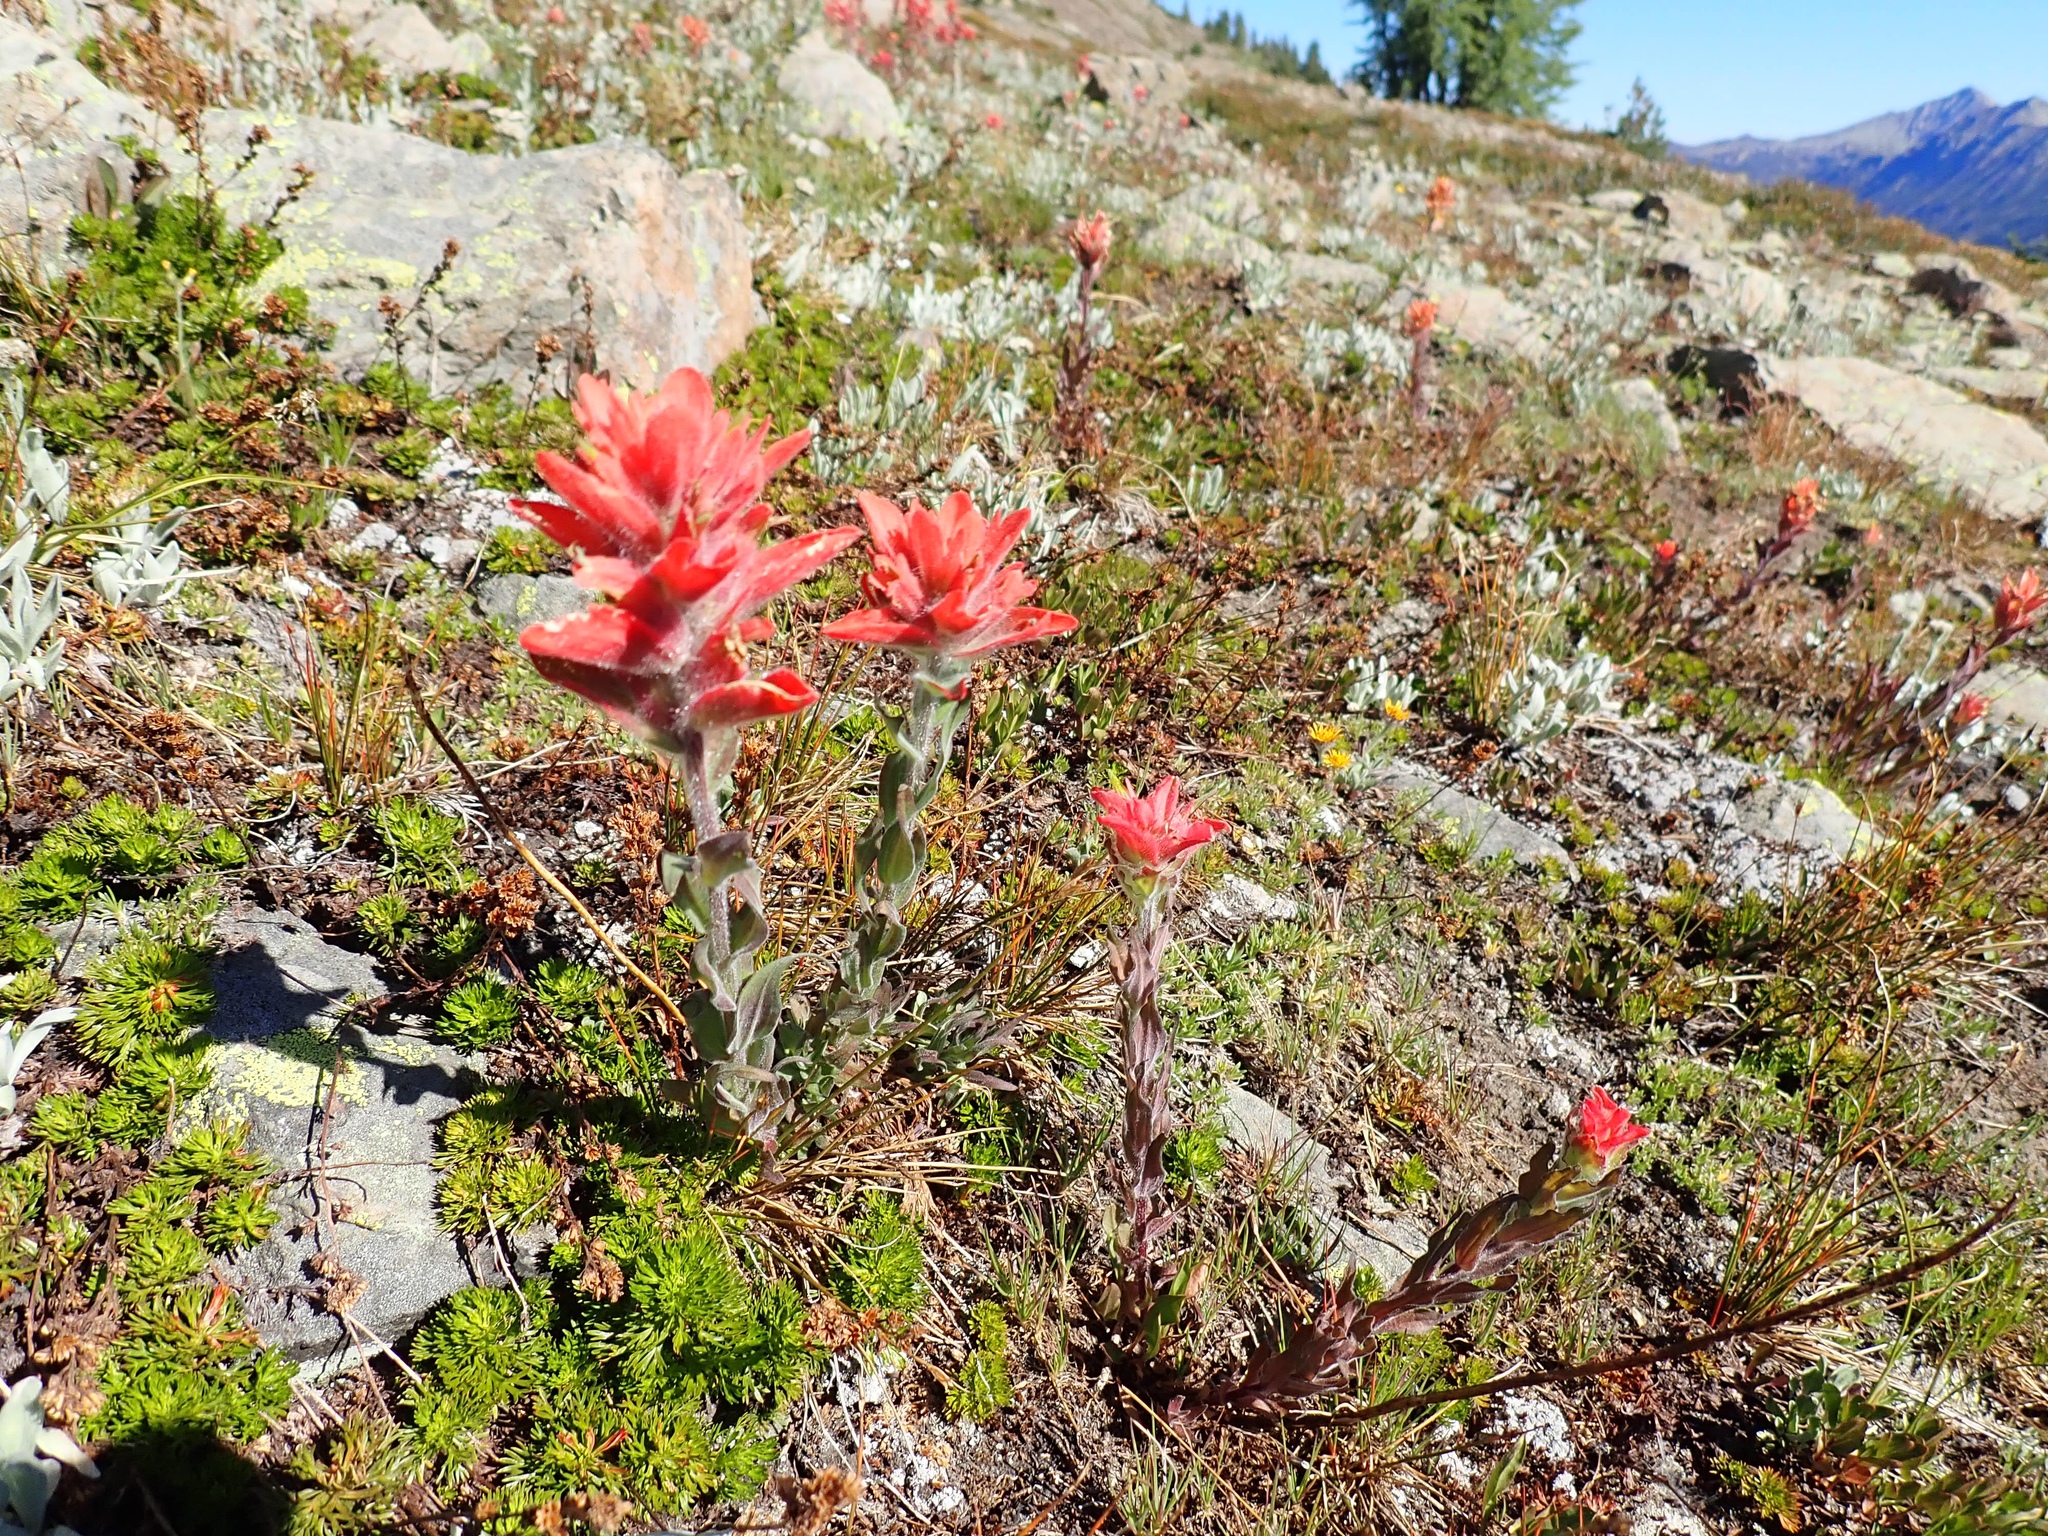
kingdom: Plantae
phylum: Tracheophyta
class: Magnoliopsida
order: Lamiales
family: Orobanchaceae
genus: Castilleja
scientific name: Castilleja elmeri
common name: Elmer's paintbrush
